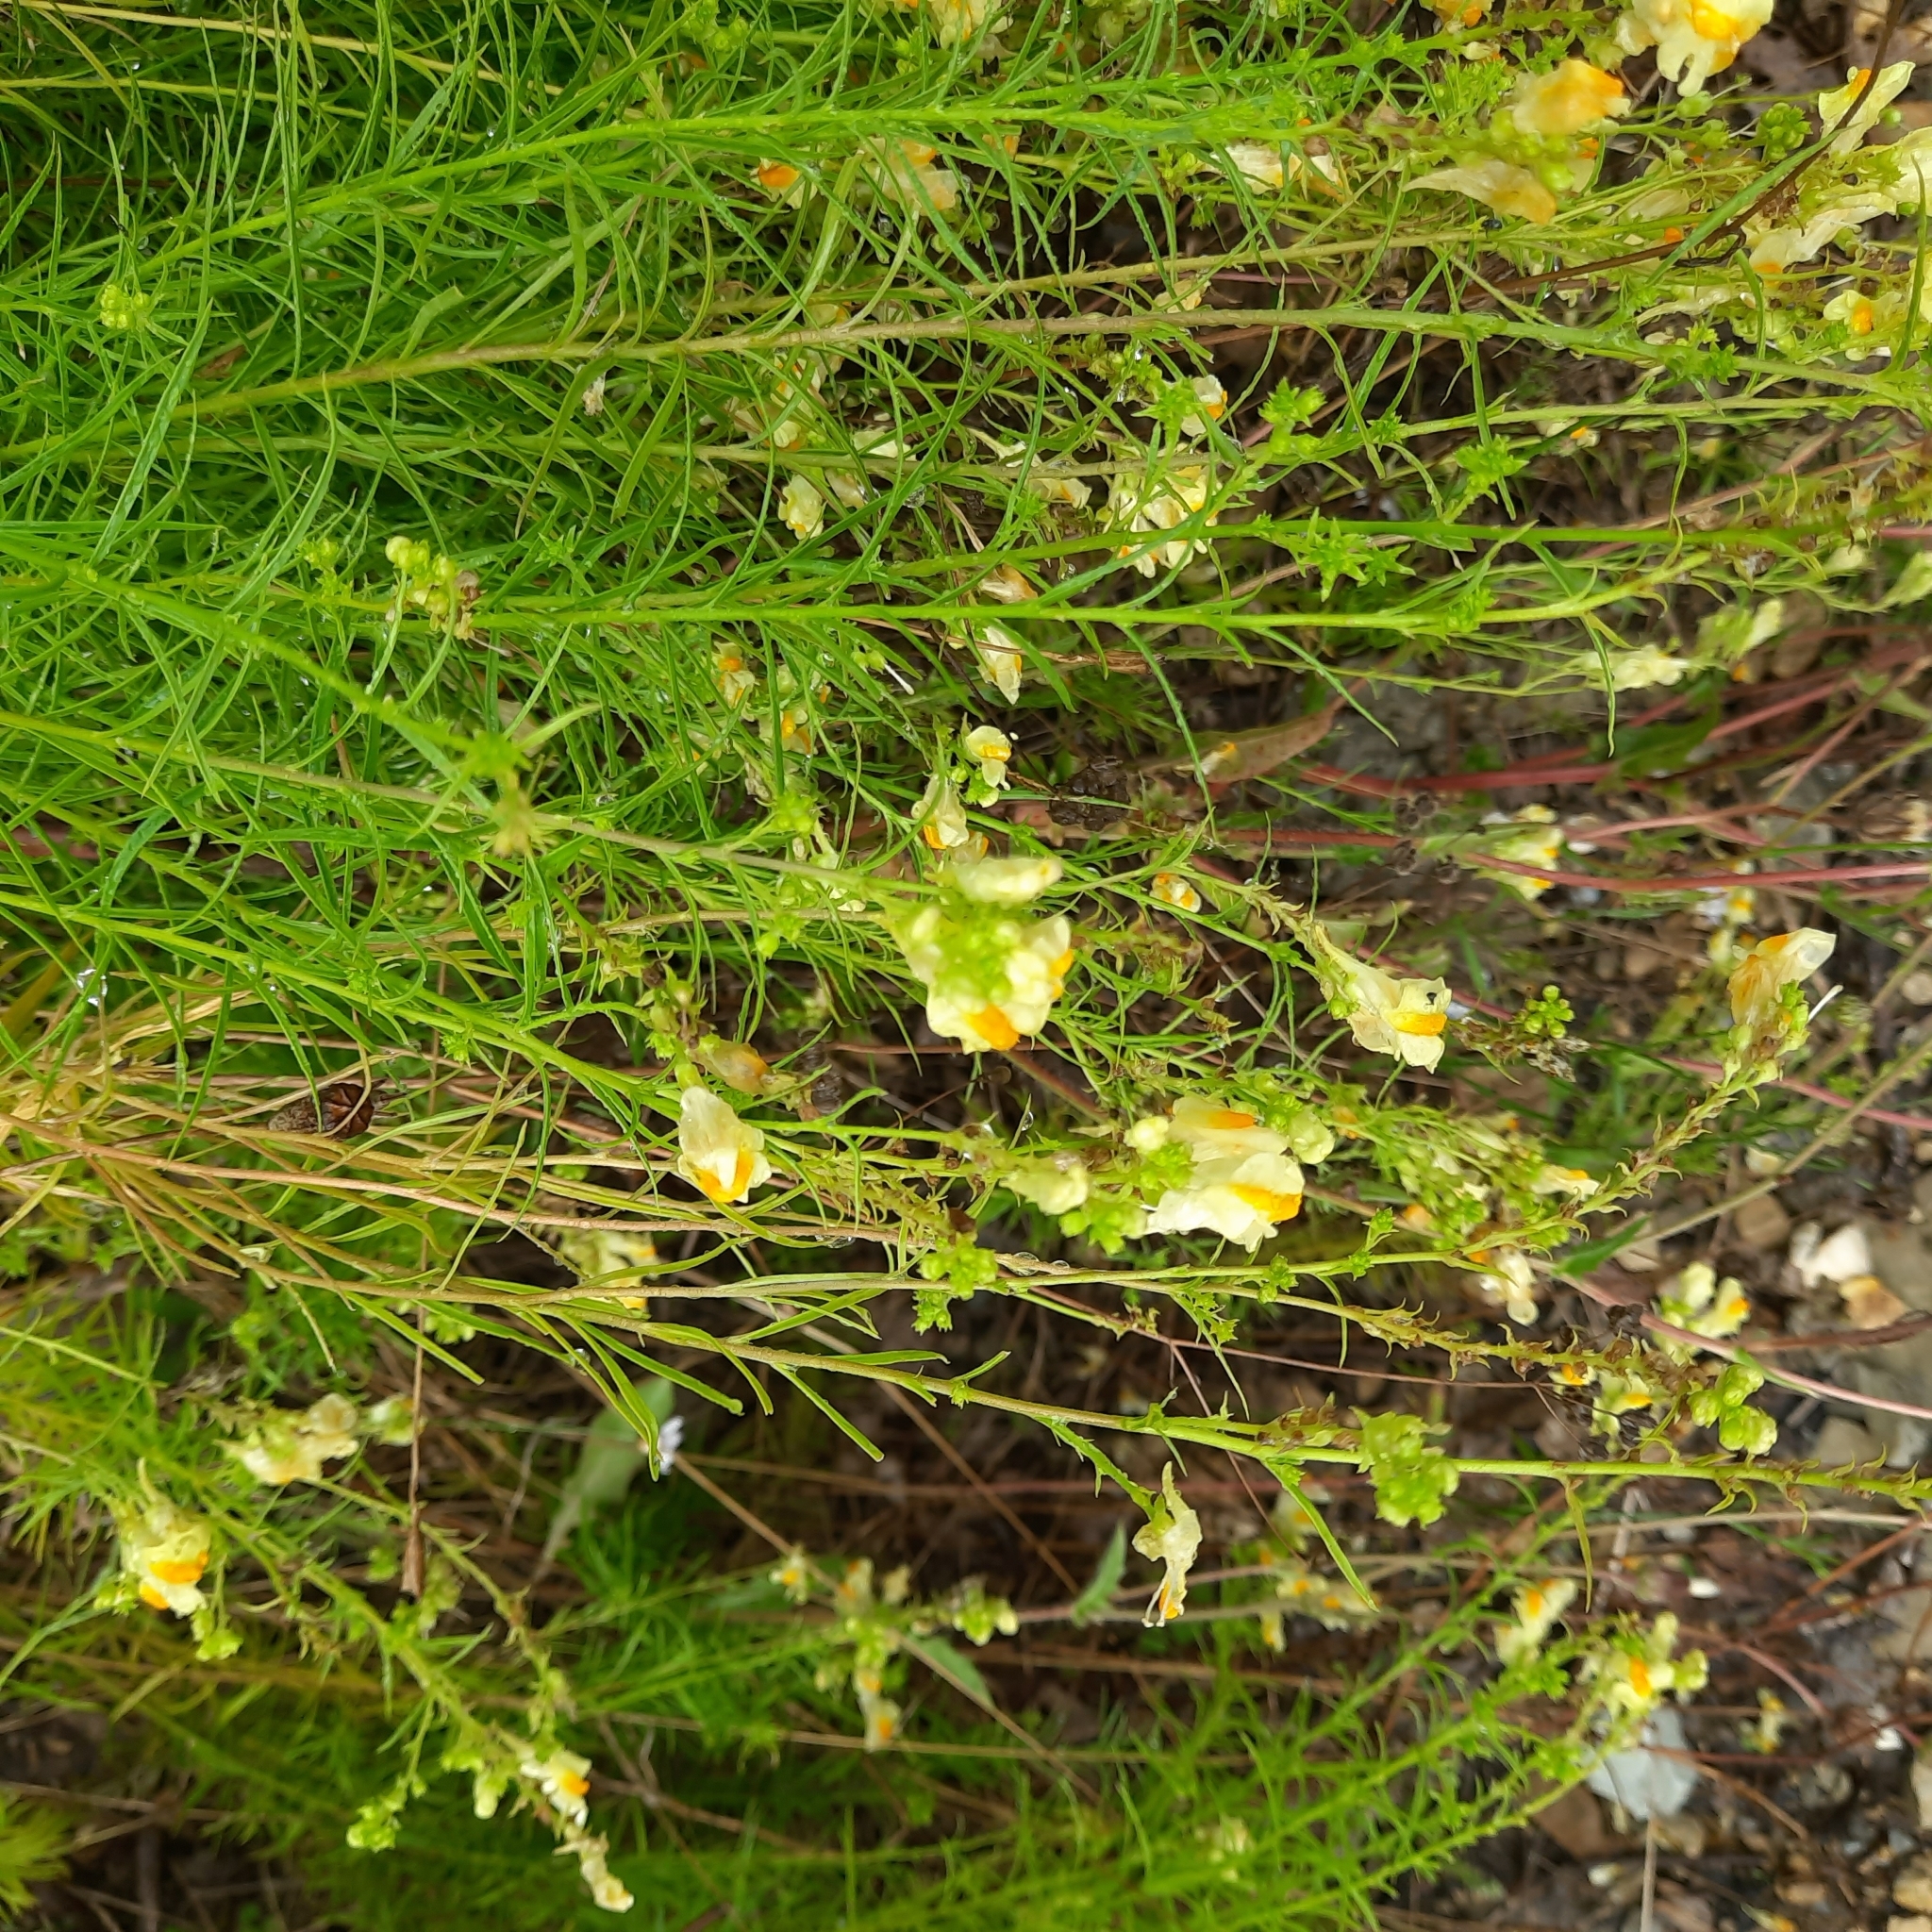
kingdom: Plantae
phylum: Tracheophyta
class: Magnoliopsida
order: Lamiales
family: Plantaginaceae
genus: Linaria
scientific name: Linaria vulgaris
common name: Butter and eggs
